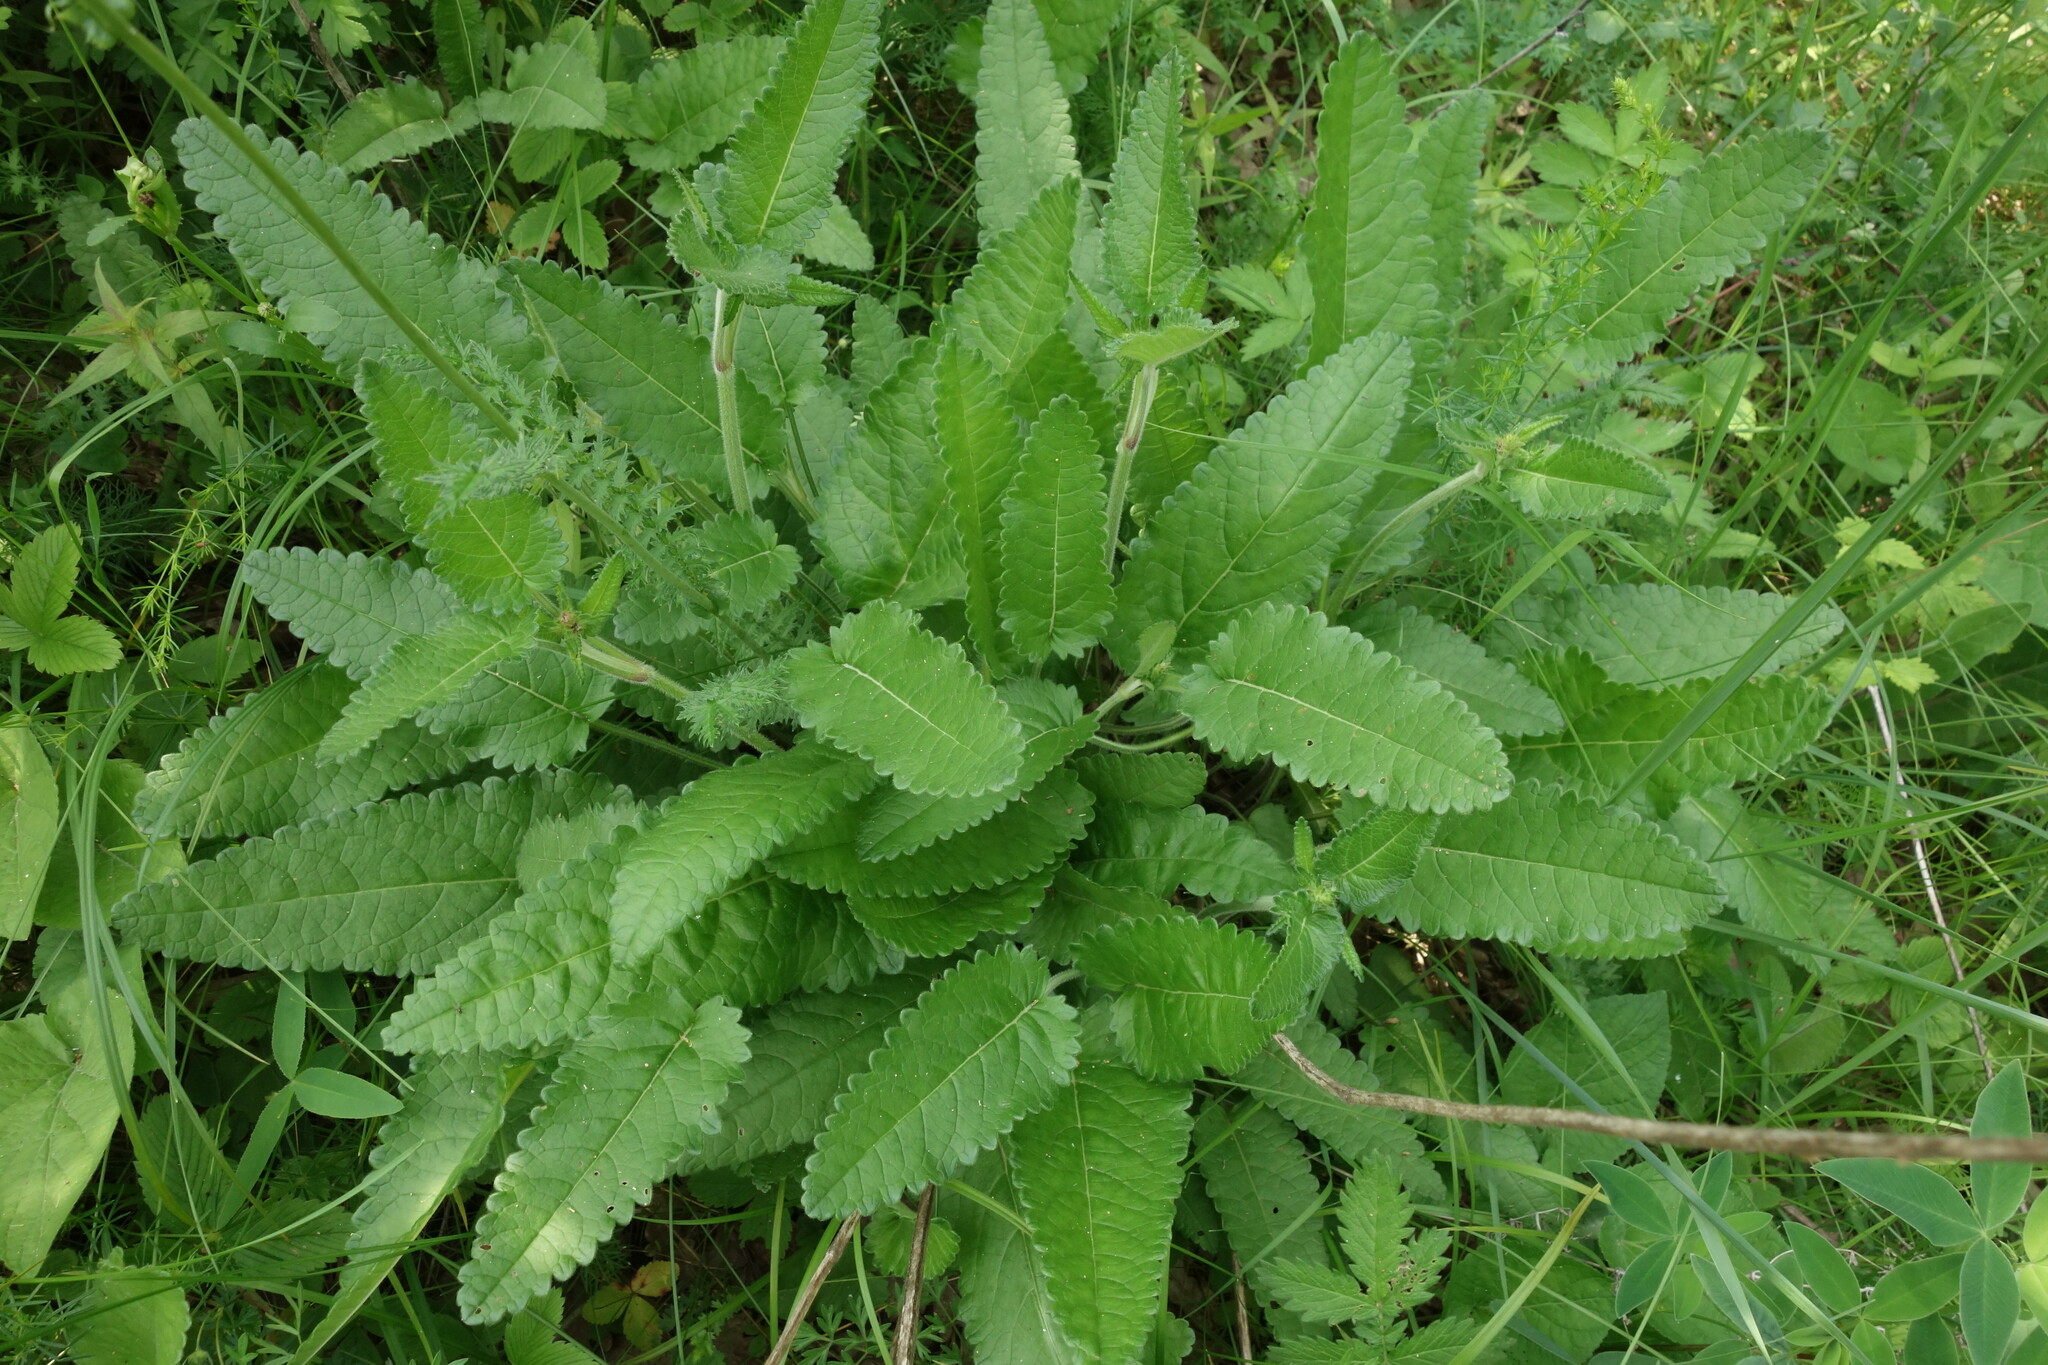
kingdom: Plantae
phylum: Tracheophyta
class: Magnoliopsida
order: Lamiales
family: Lamiaceae
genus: Betonica
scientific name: Betonica officinalis
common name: Bishop's-wort
